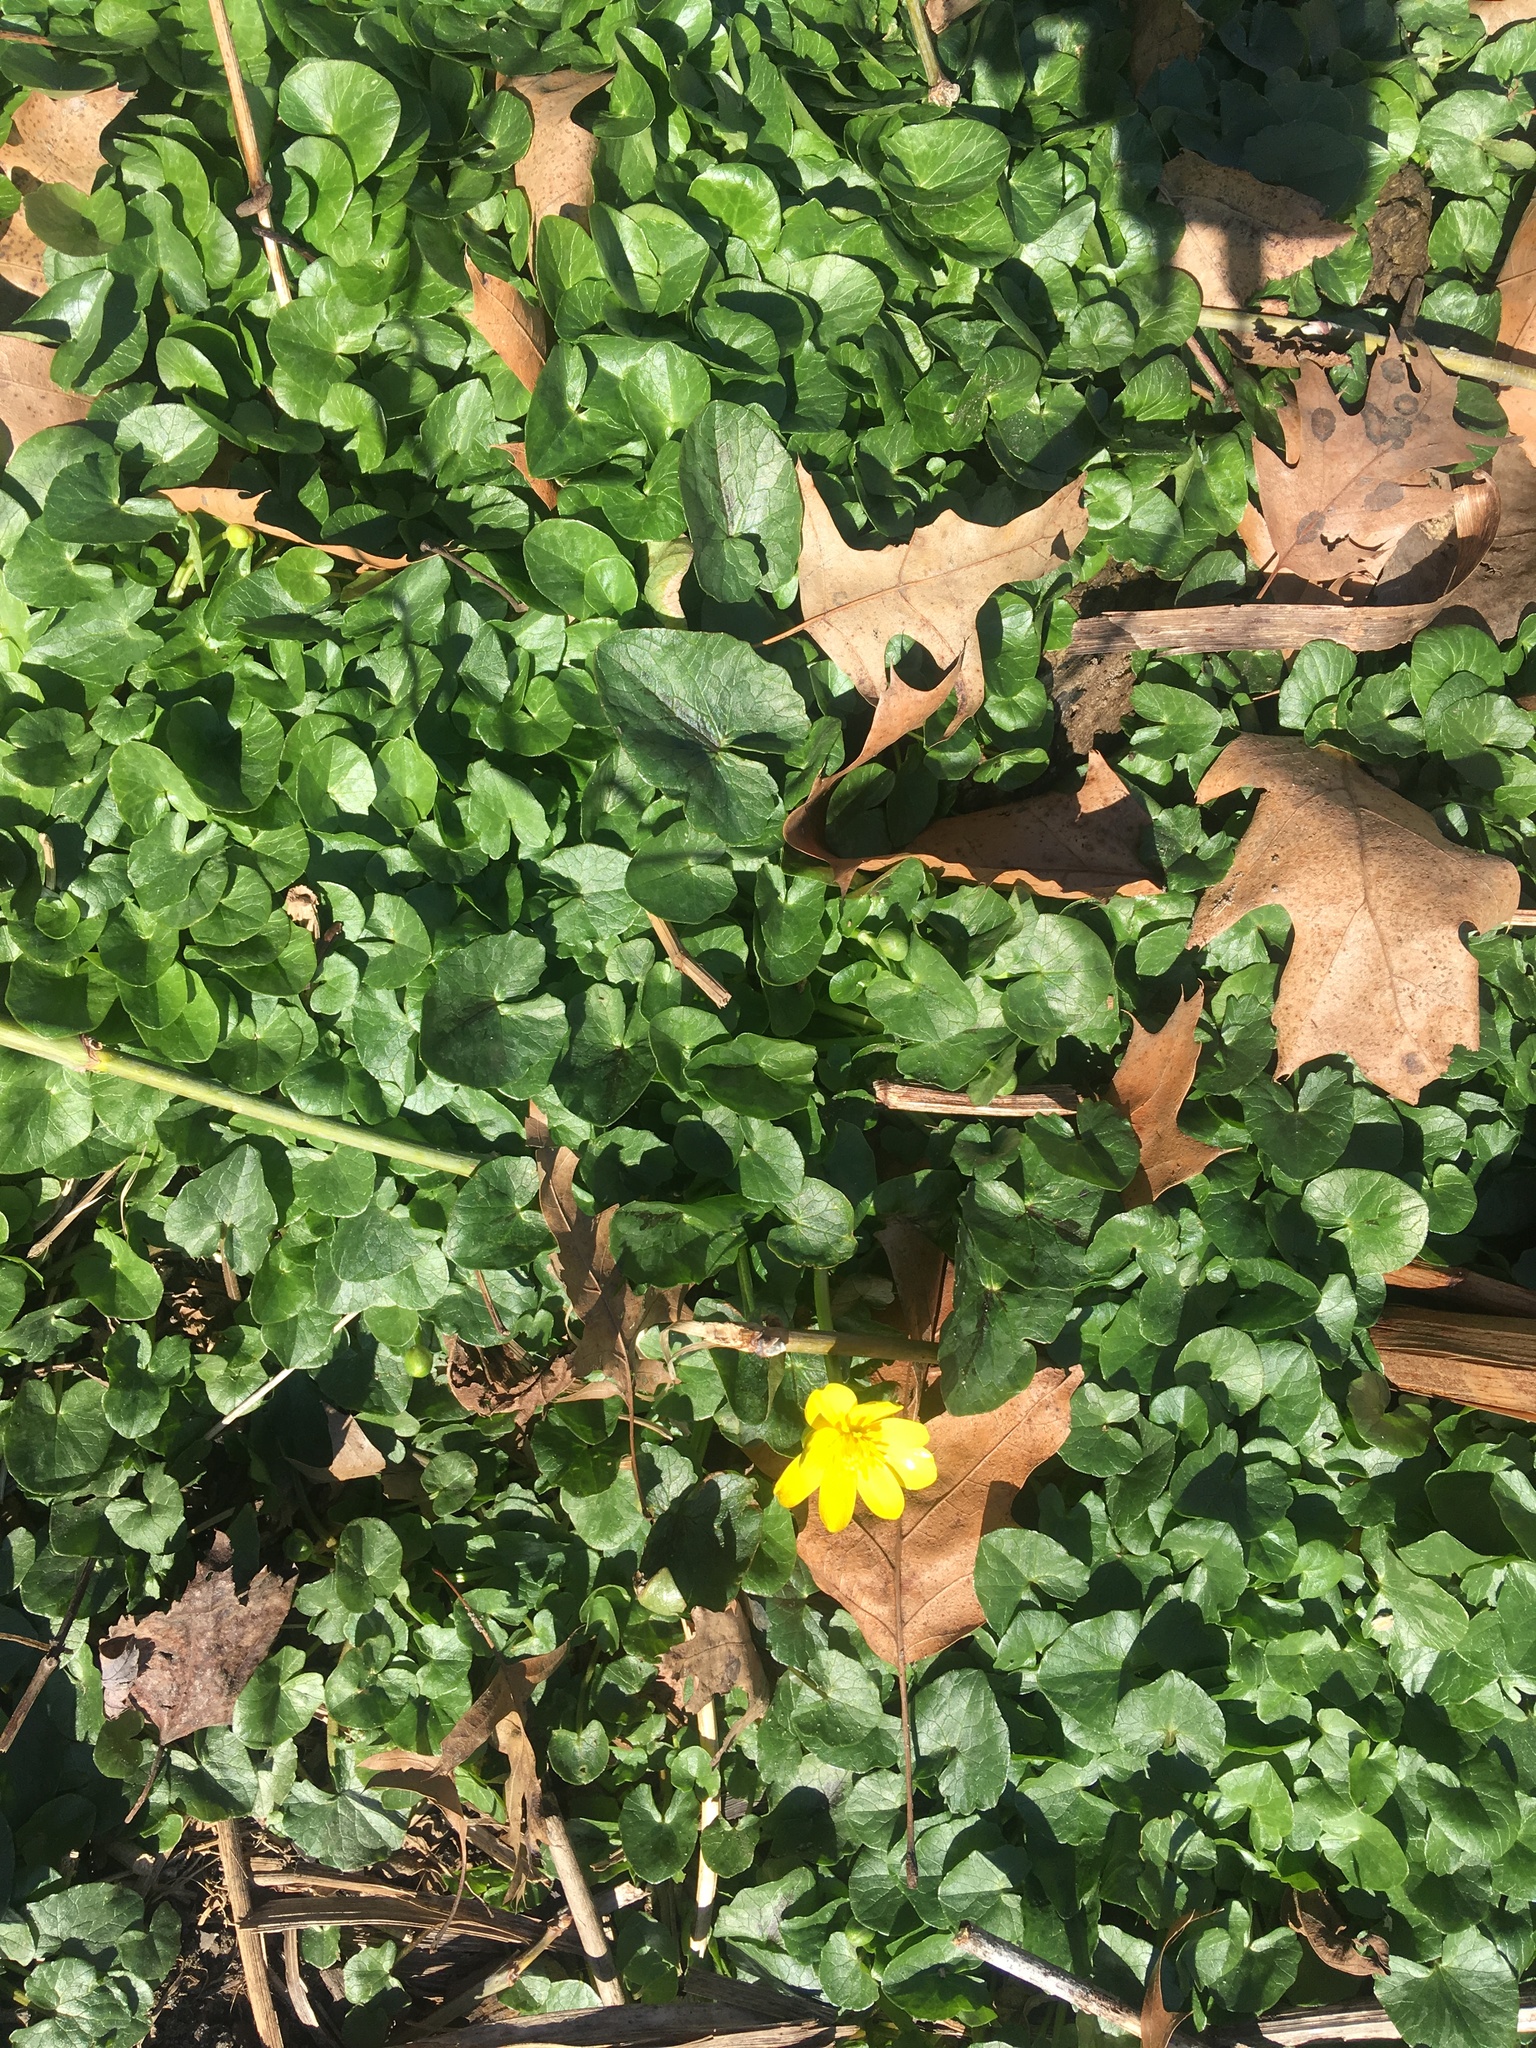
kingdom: Plantae
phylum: Tracheophyta
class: Magnoliopsida
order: Ranunculales
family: Ranunculaceae
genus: Ficaria
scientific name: Ficaria verna
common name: Lesser celandine
